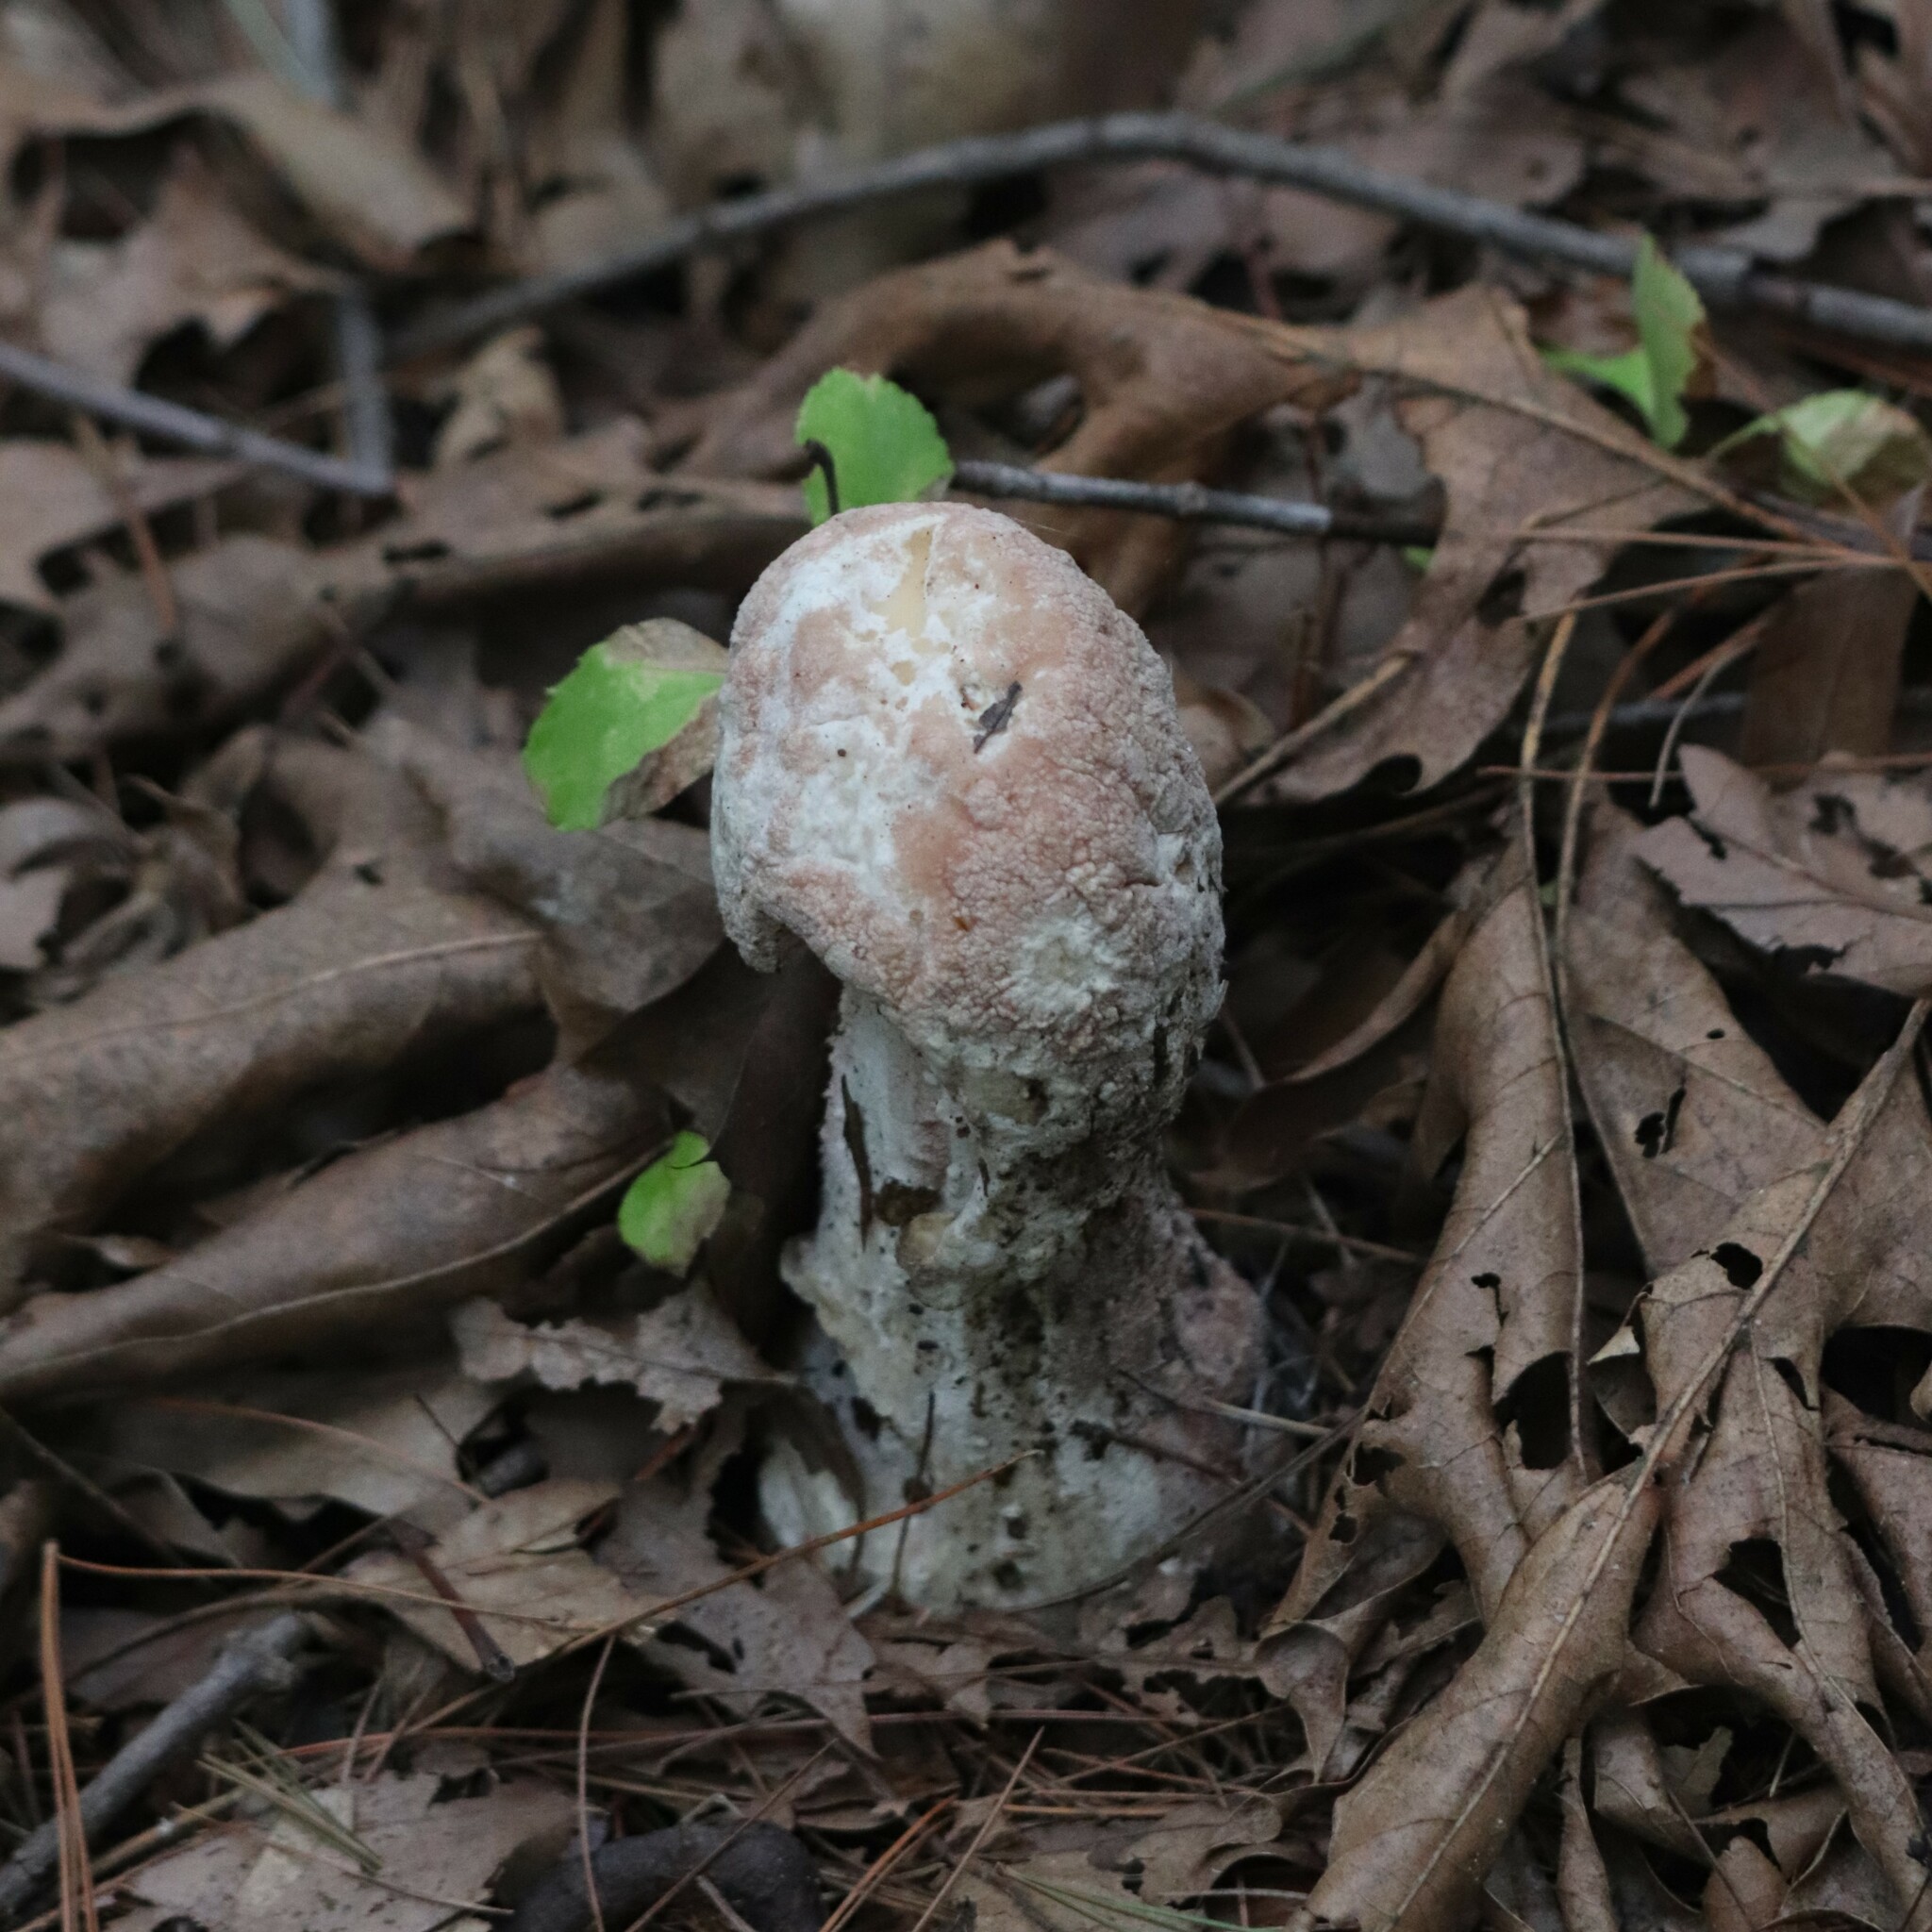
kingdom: Fungi
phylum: Ascomycota
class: Sordariomycetes
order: Hypocreales
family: Hypocreaceae
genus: Hypomyces
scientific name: Hypomyces hyalinus
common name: Amanita mold
